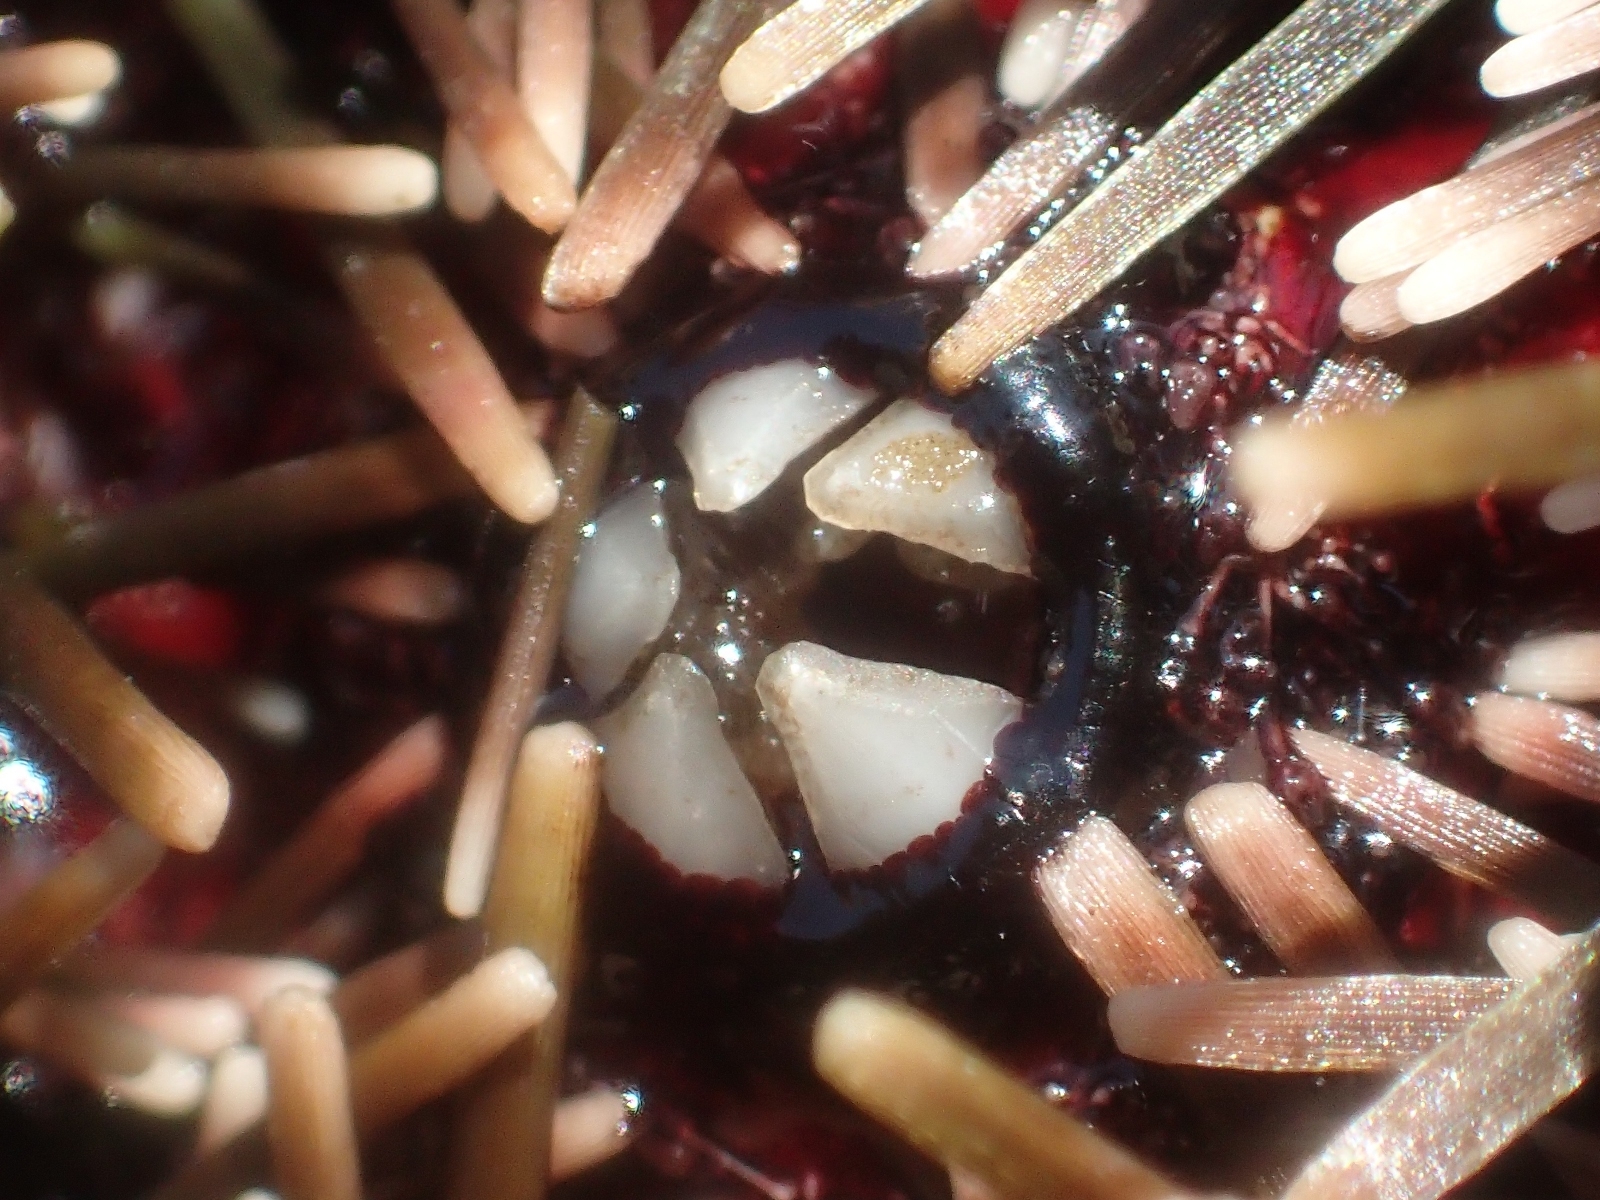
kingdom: Animalia
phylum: Echinodermata
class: Echinoidea
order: Camarodonta
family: Echinometridae
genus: Evechinus
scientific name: Evechinus chloroticus
